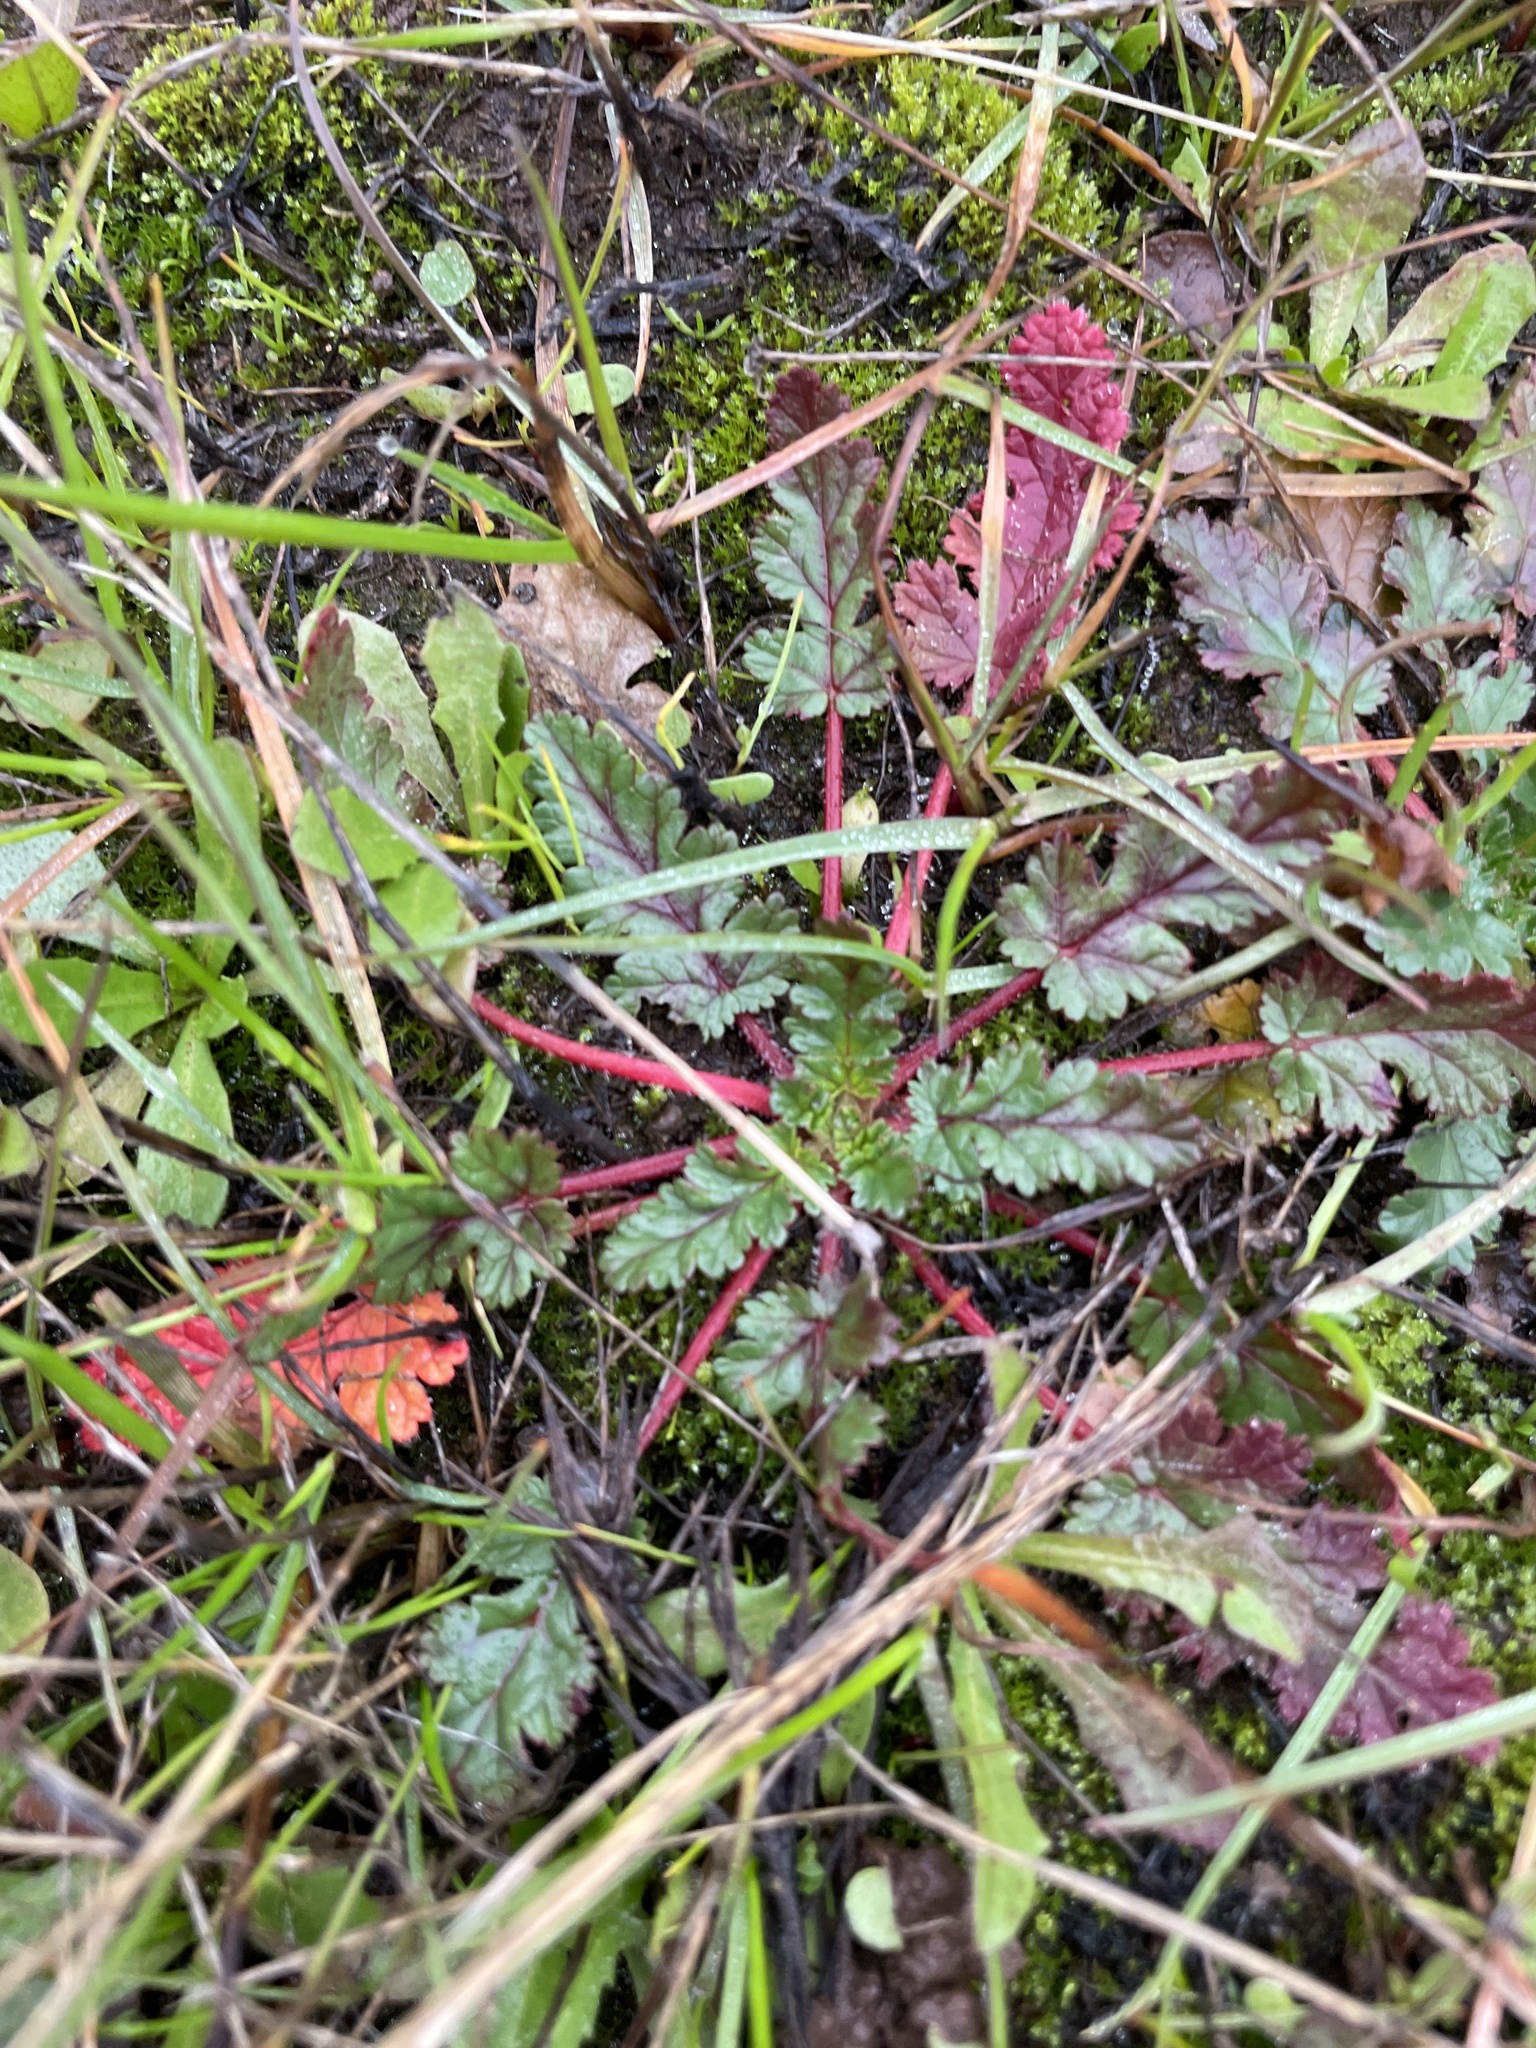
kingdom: Plantae
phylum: Tracheophyta
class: Magnoliopsida
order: Geraniales
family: Geraniaceae
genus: Erodium
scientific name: Erodium
